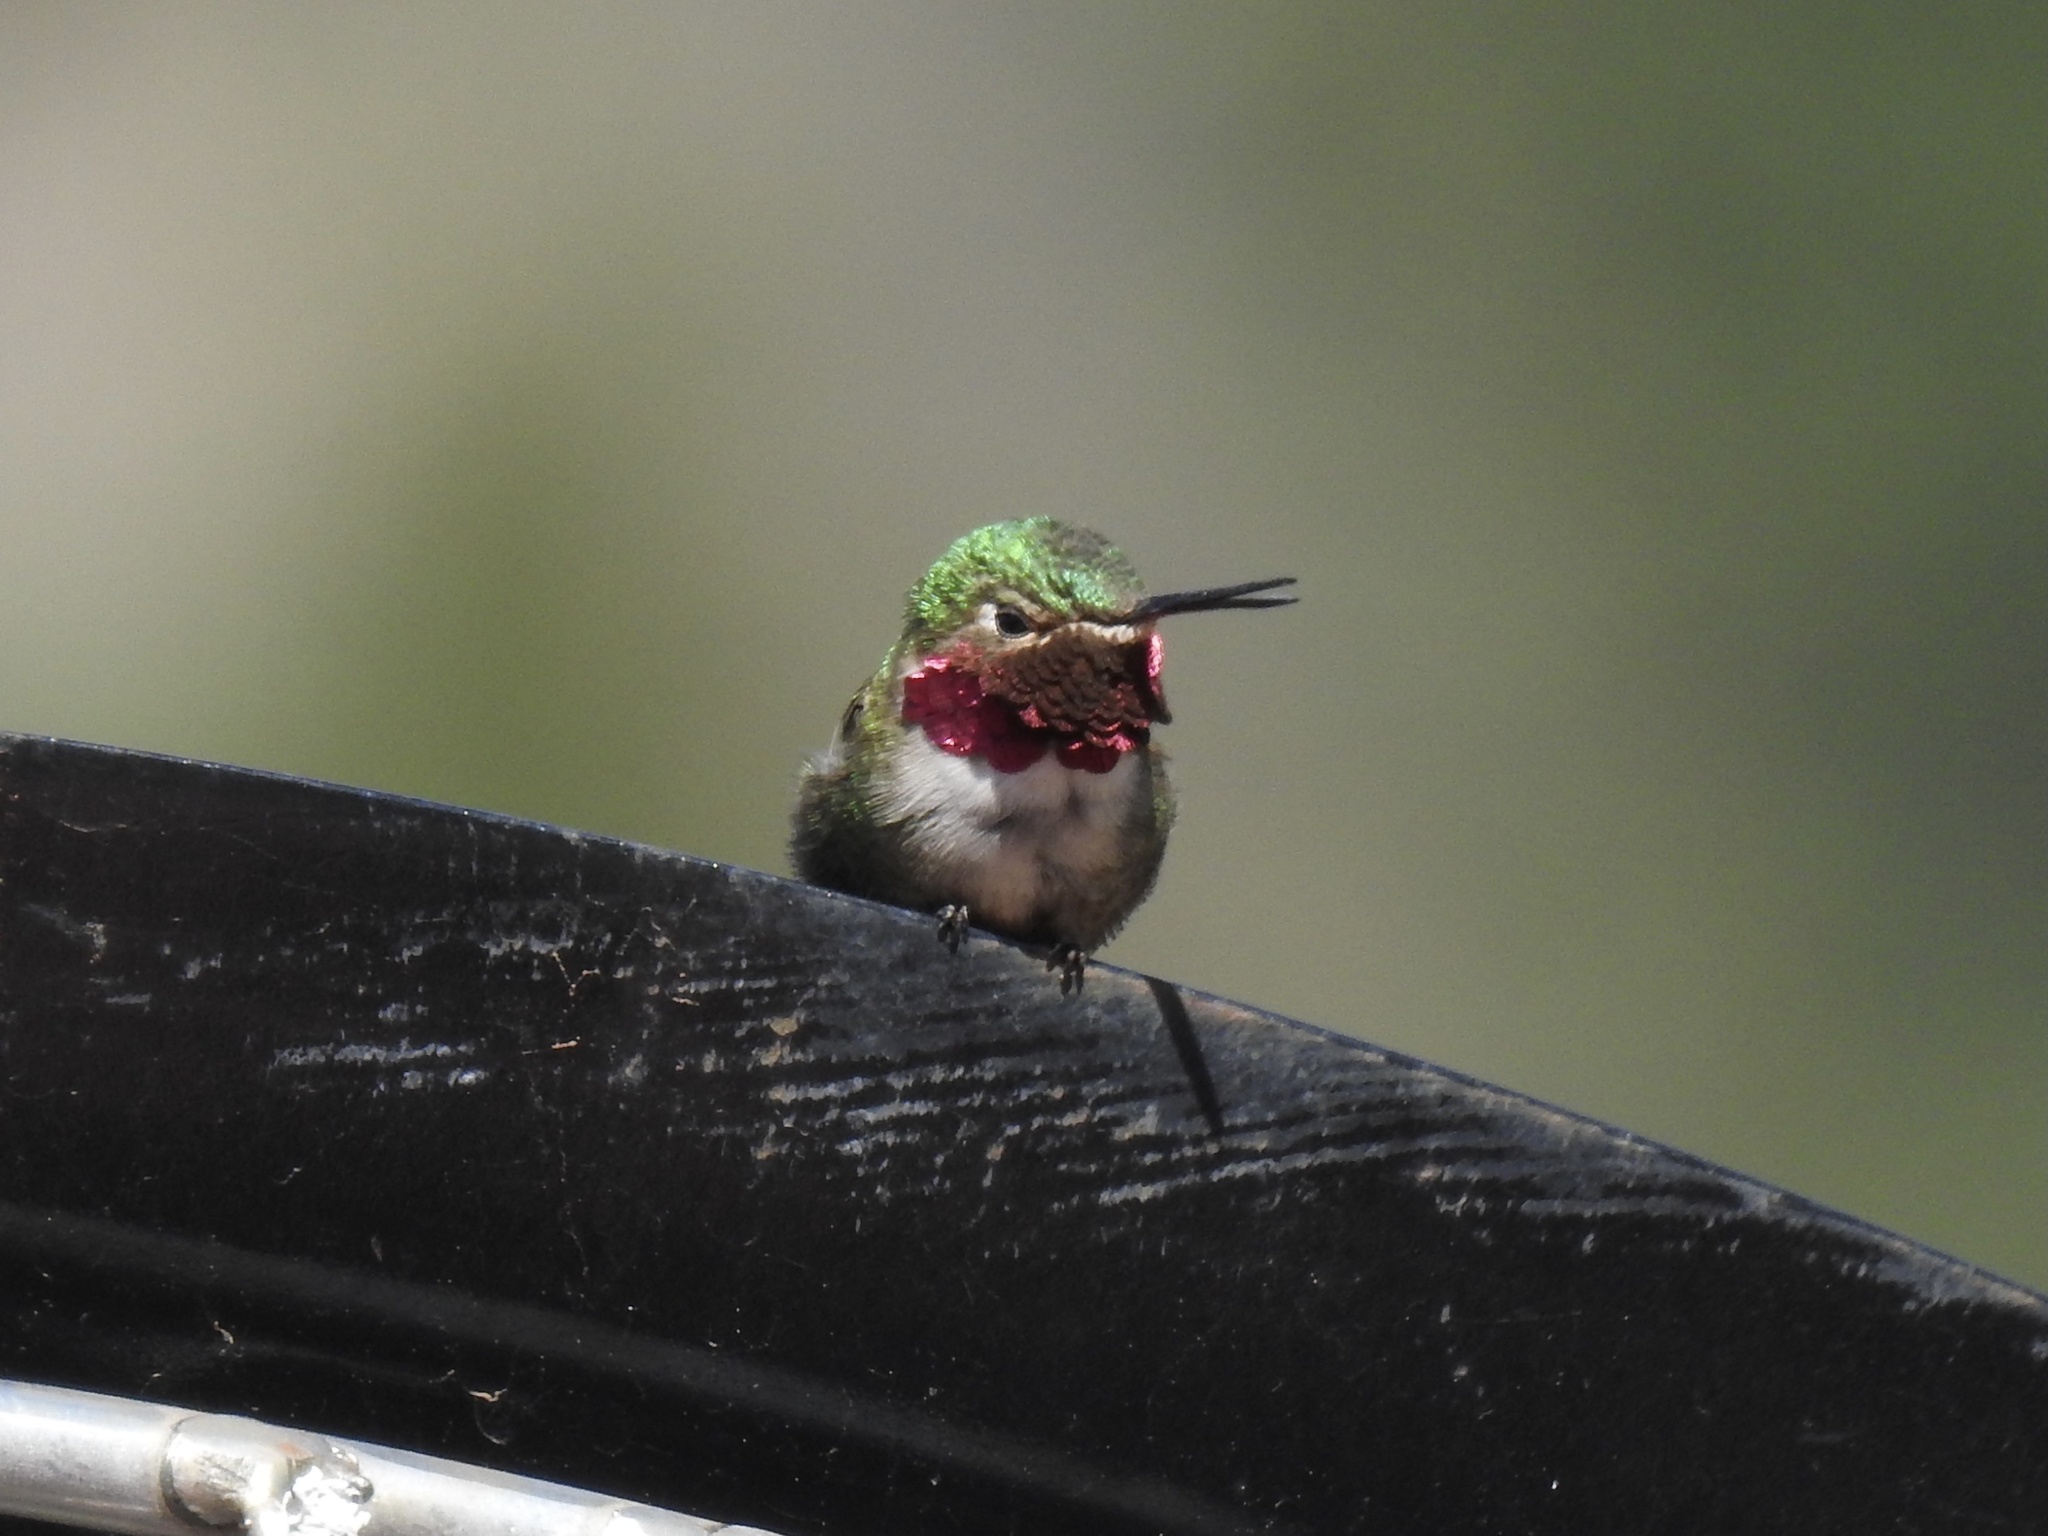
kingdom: Animalia
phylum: Chordata
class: Aves
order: Apodiformes
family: Trochilidae
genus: Selasphorus
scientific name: Selasphorus platycercus
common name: Broad-tailed hummingbird
